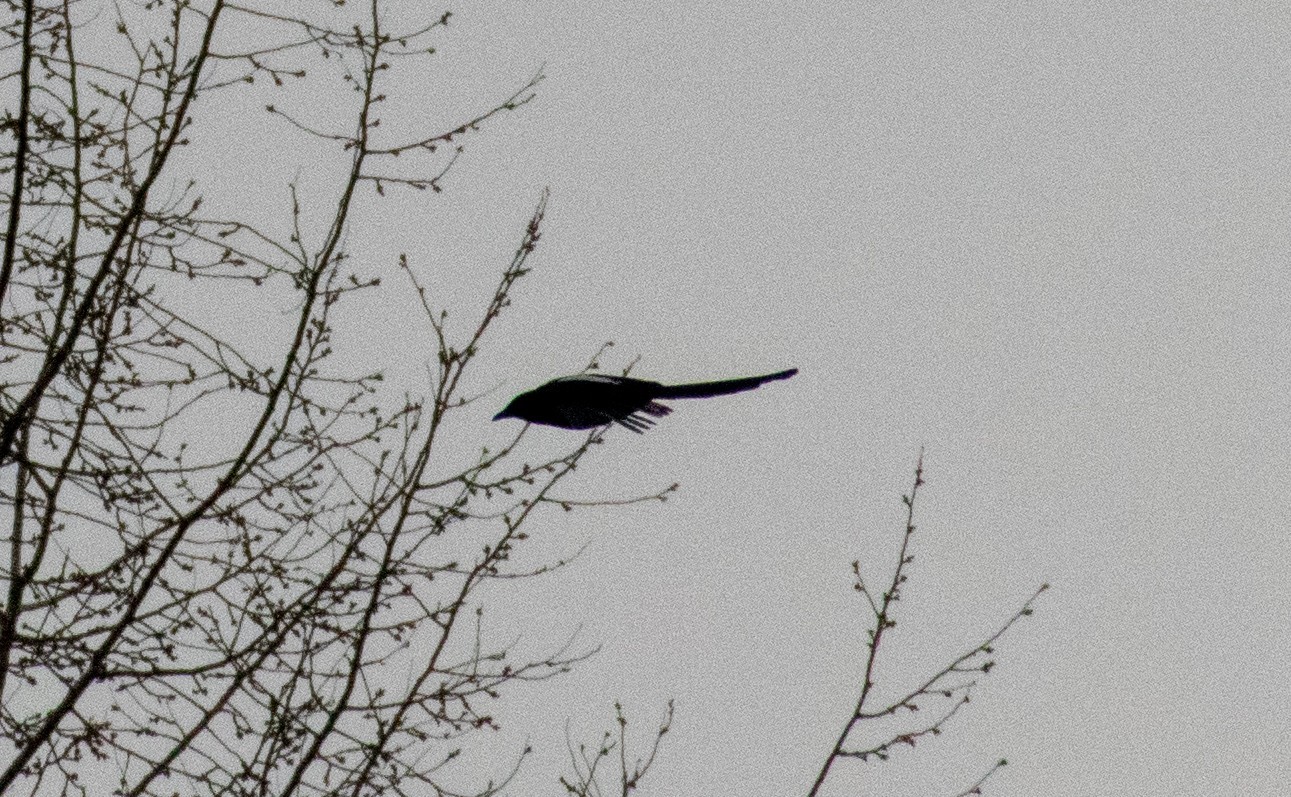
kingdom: Animalia
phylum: Chordata
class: Aves
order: Passeriformes
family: Corvidae
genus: Pica
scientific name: Pica pica
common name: Eurasian magpie
